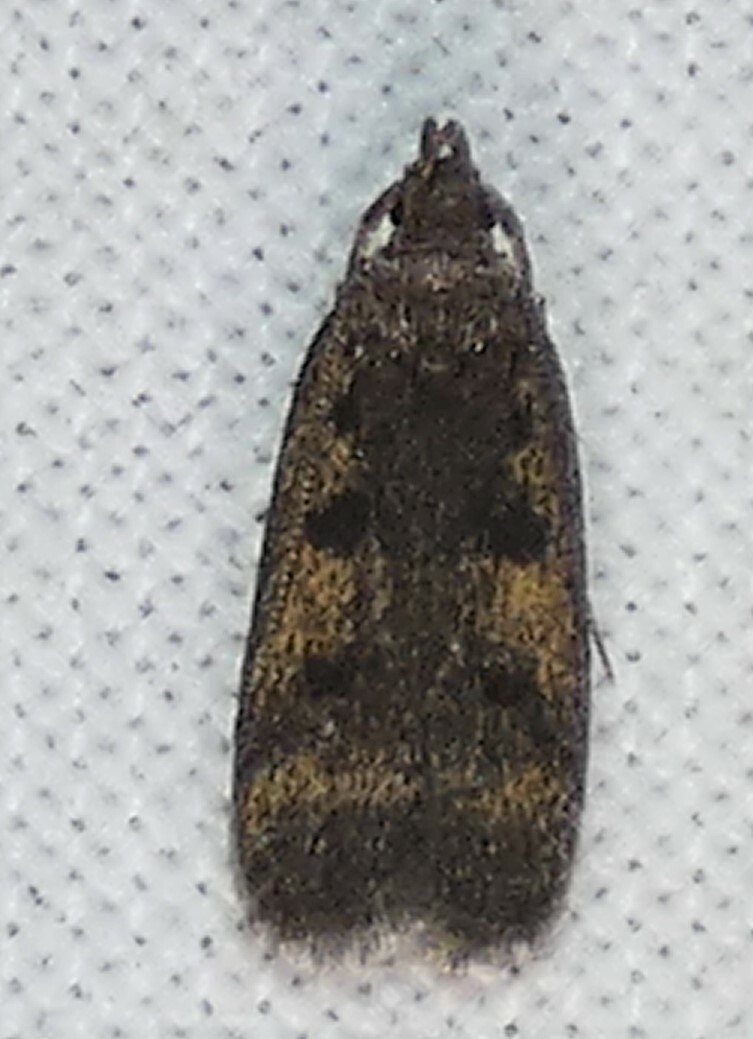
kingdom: Animalia
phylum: Arthropoda
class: Insecta
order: Lepidoptera
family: Autostichidae
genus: Glyphidocera
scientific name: Glyphidocera floridanella
